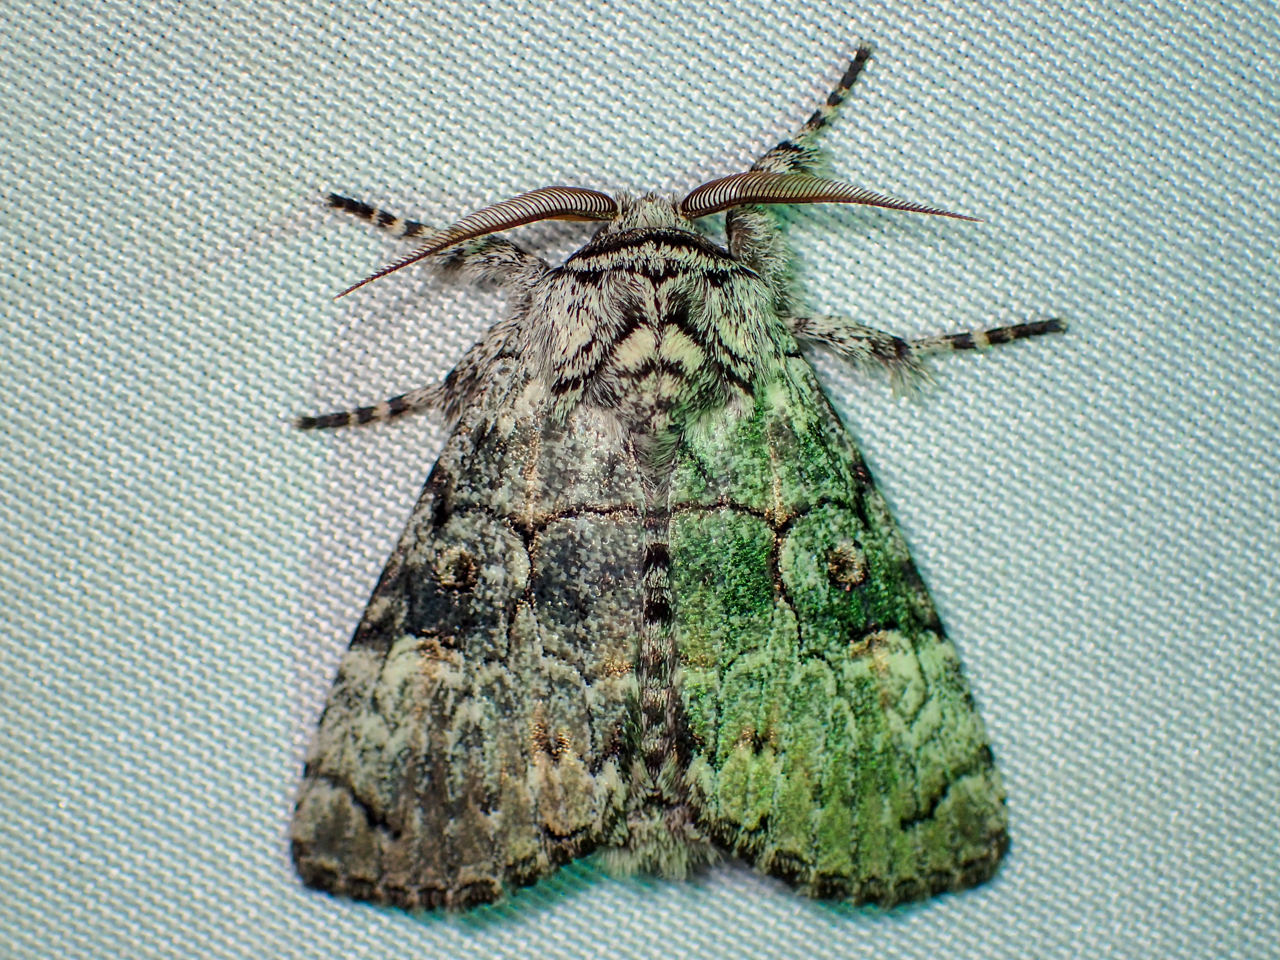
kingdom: Animalia
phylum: Arthropoda
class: Insecta
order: Lepidoptera
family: Noctuidae
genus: Charadra
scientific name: Charadra deridens
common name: Marbled tuffet
